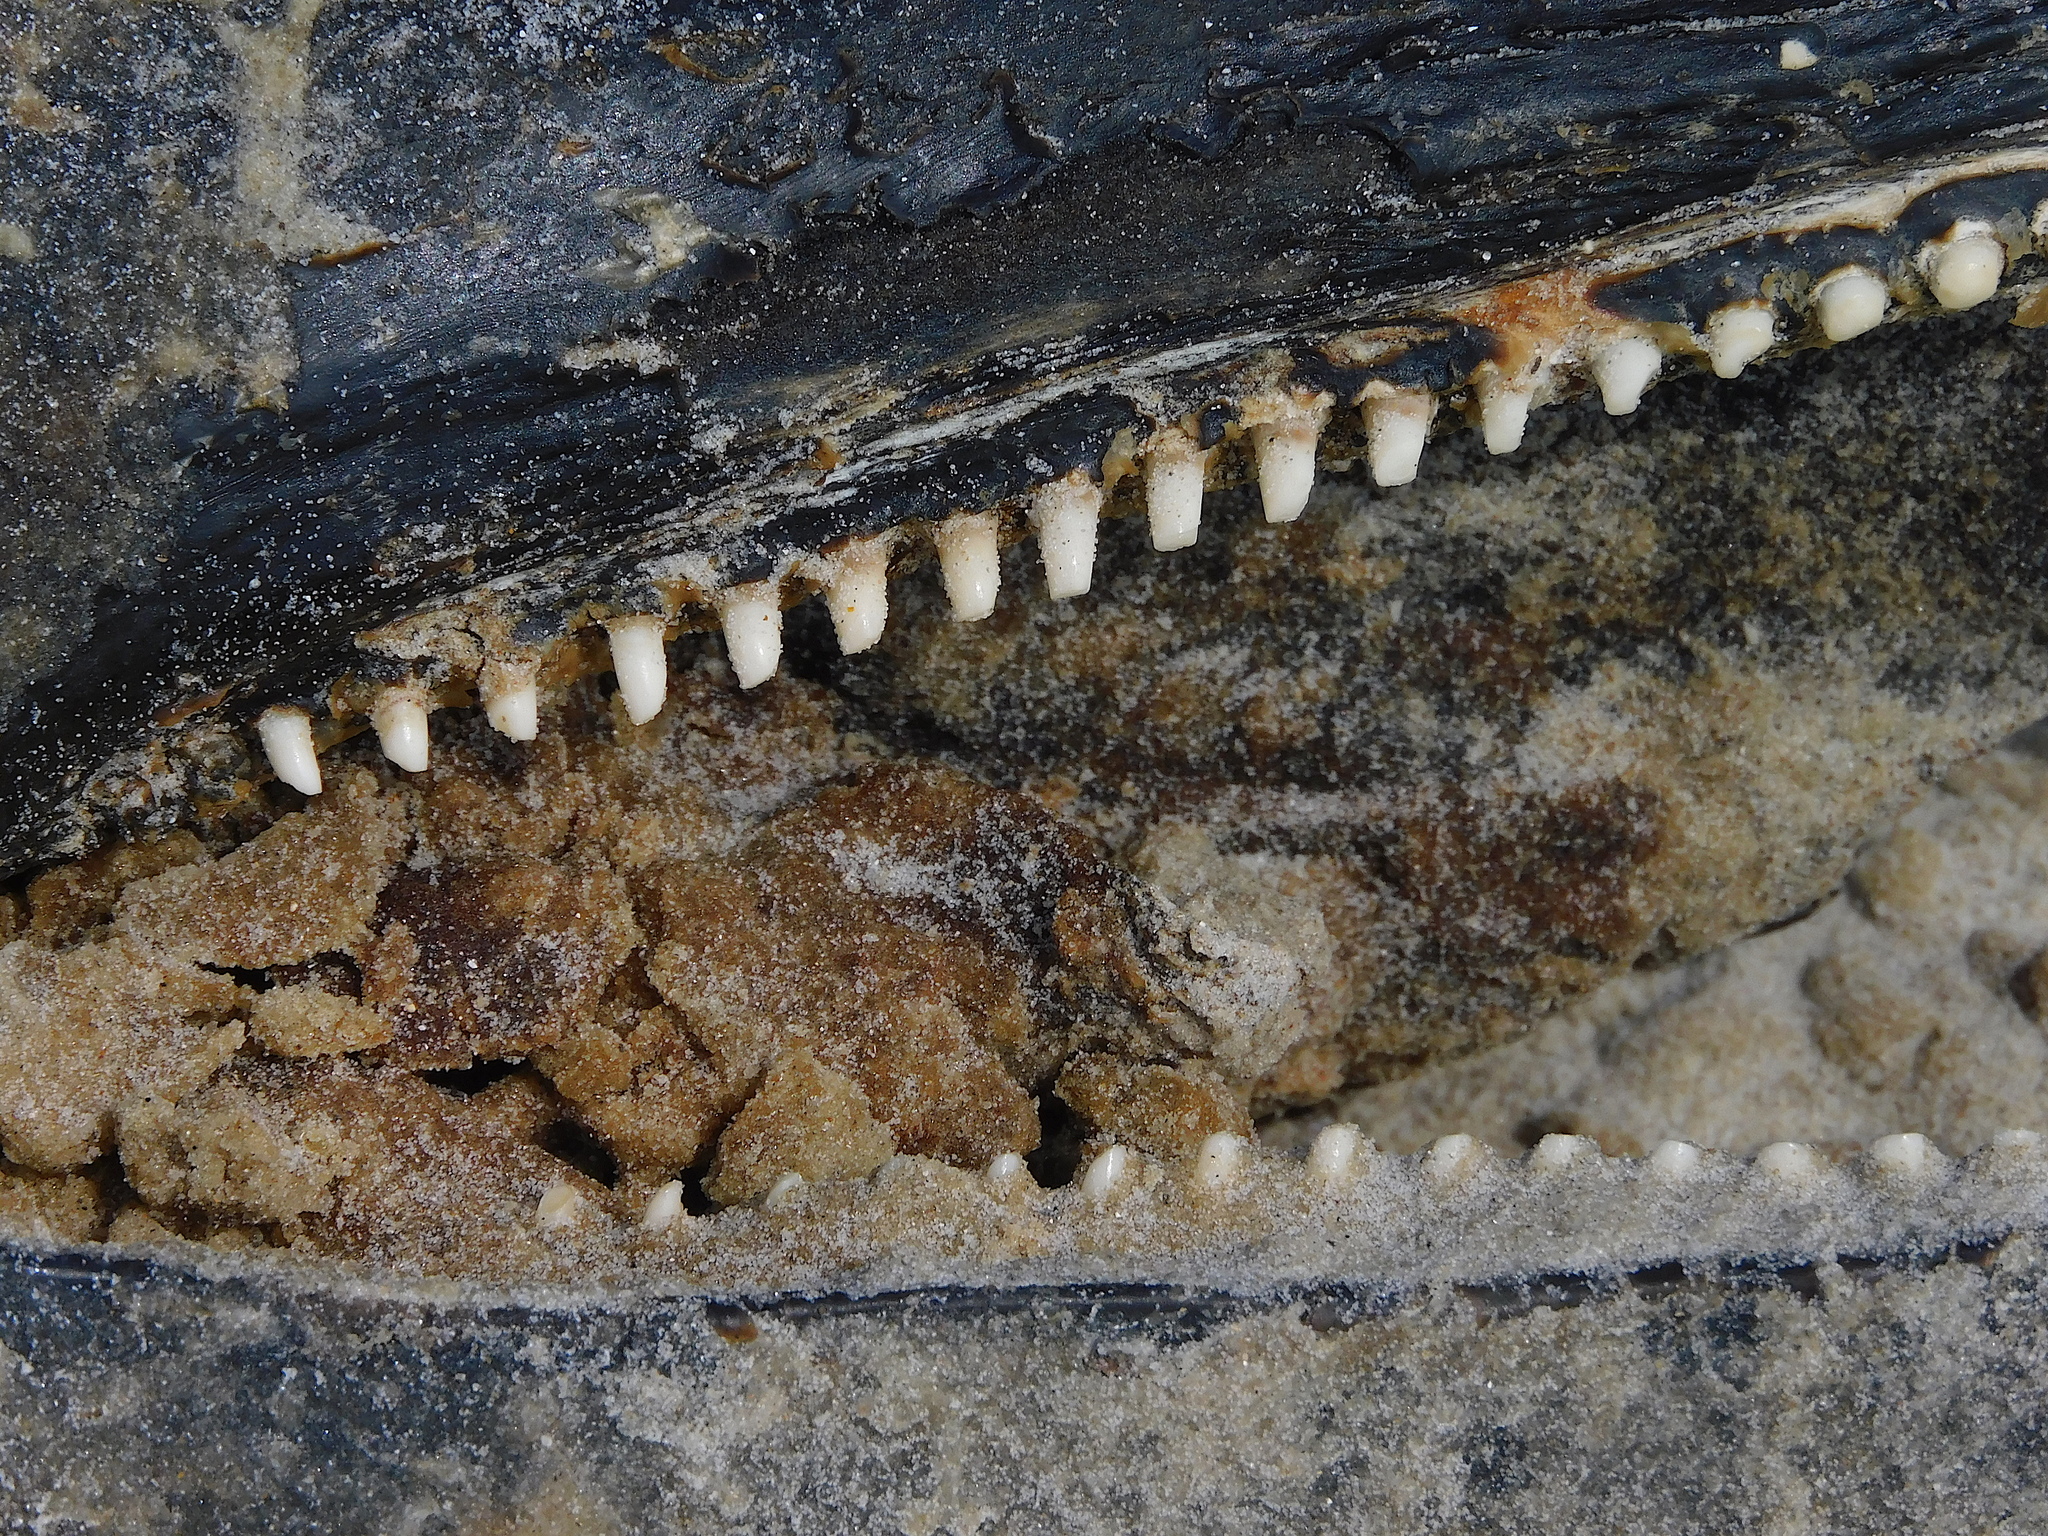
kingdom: Animalia
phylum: Chordata
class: Mammalia
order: Cetacea
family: Delphinidae
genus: Delphinus
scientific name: Delphinus delphis
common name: Common dolphin
